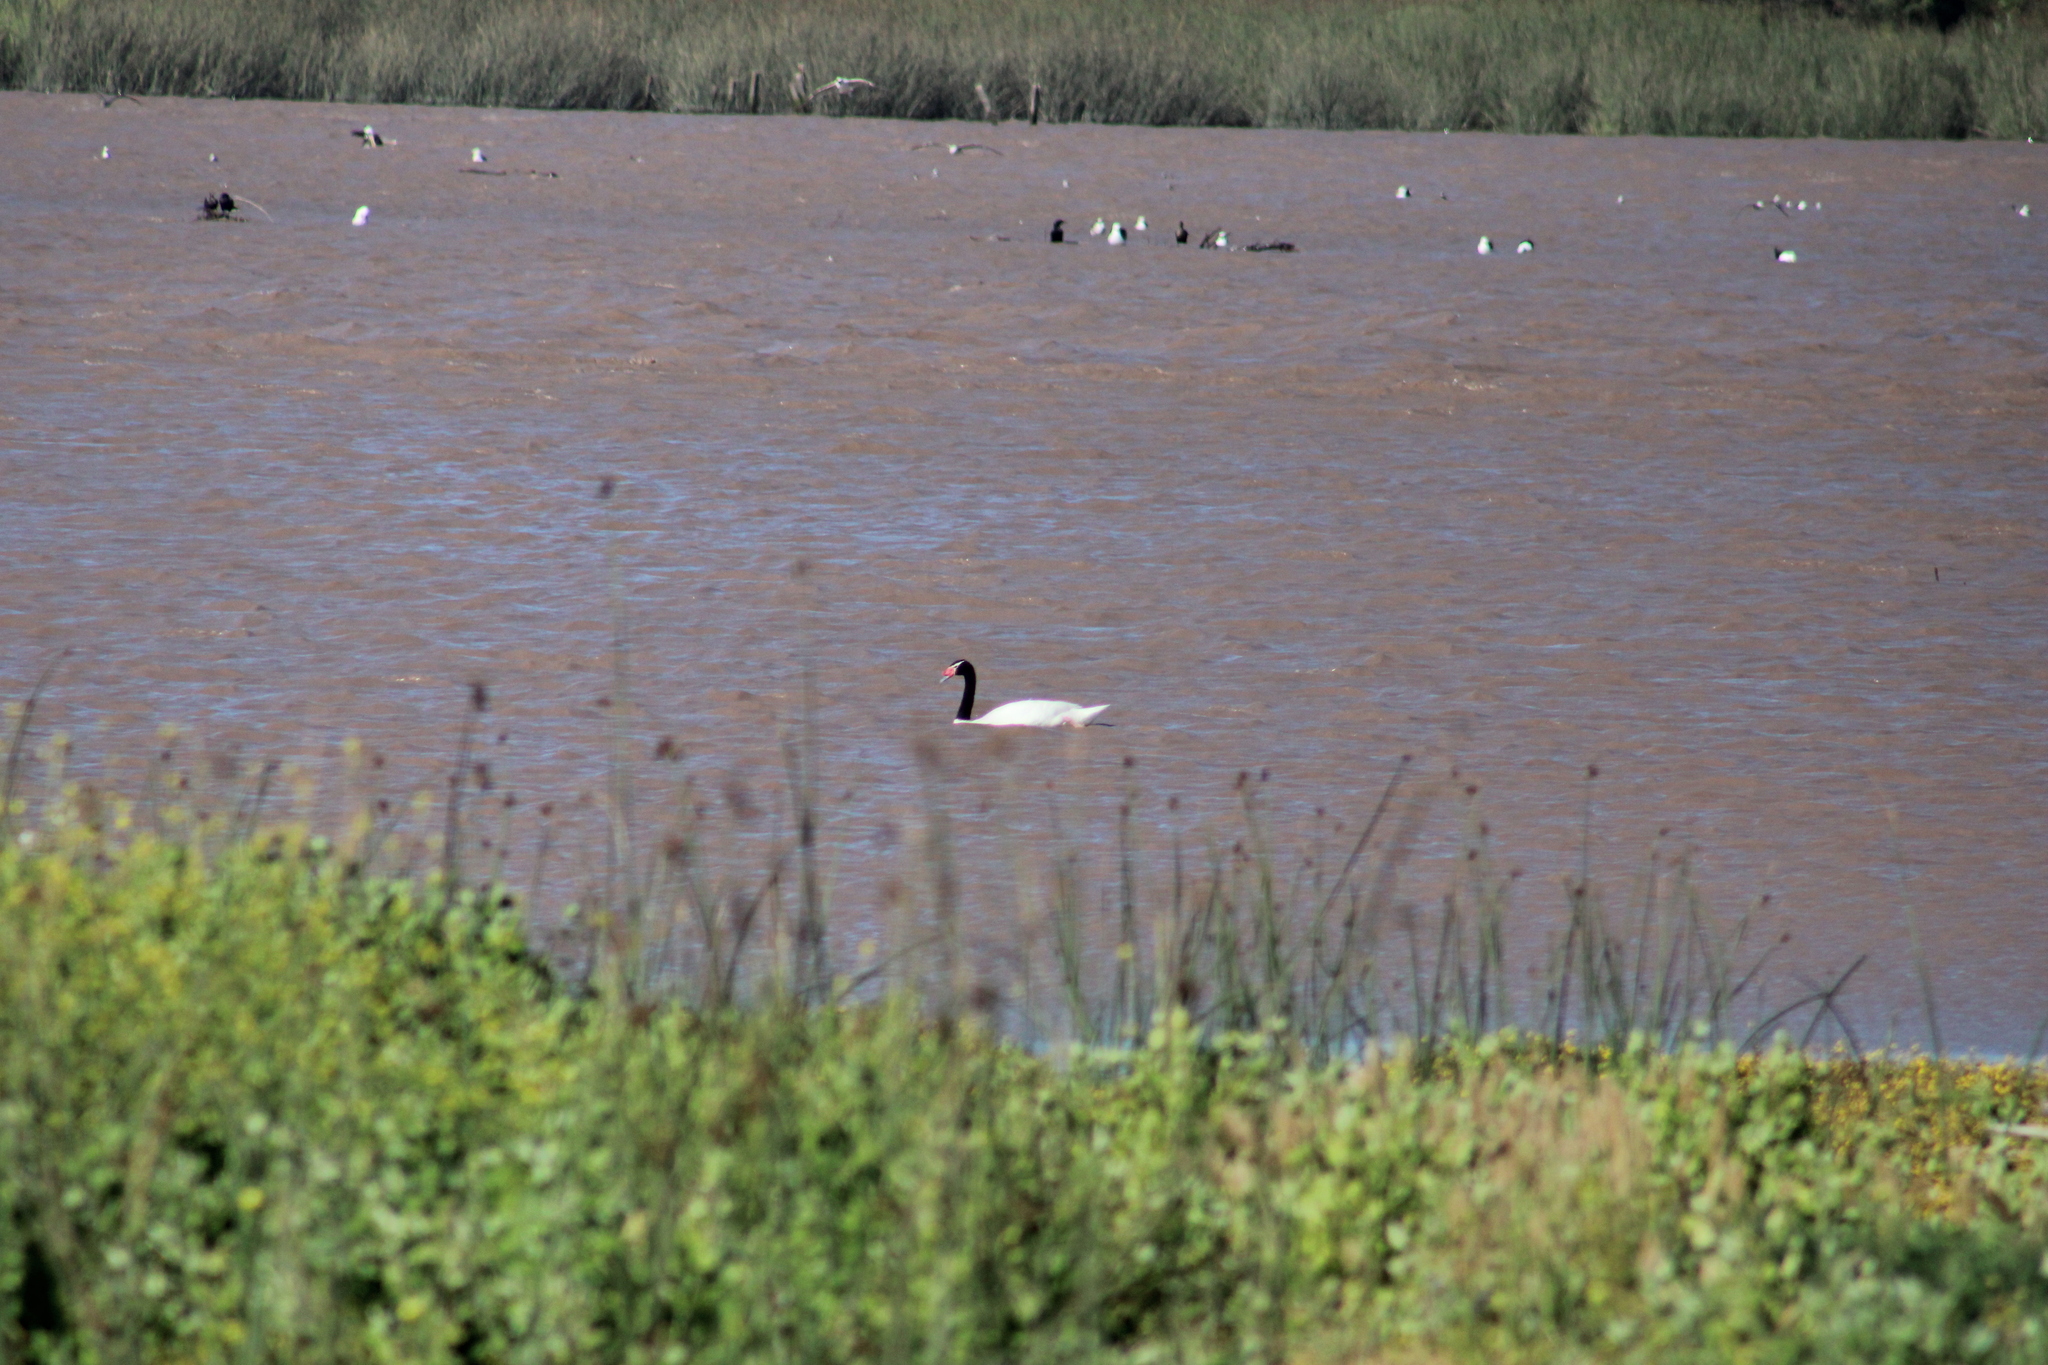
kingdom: Animalia
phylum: Chordata
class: Aves
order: Anseriformes
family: Anatidae
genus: Cygnus
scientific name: Cygnus melancoryphus
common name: Black-necked swan
